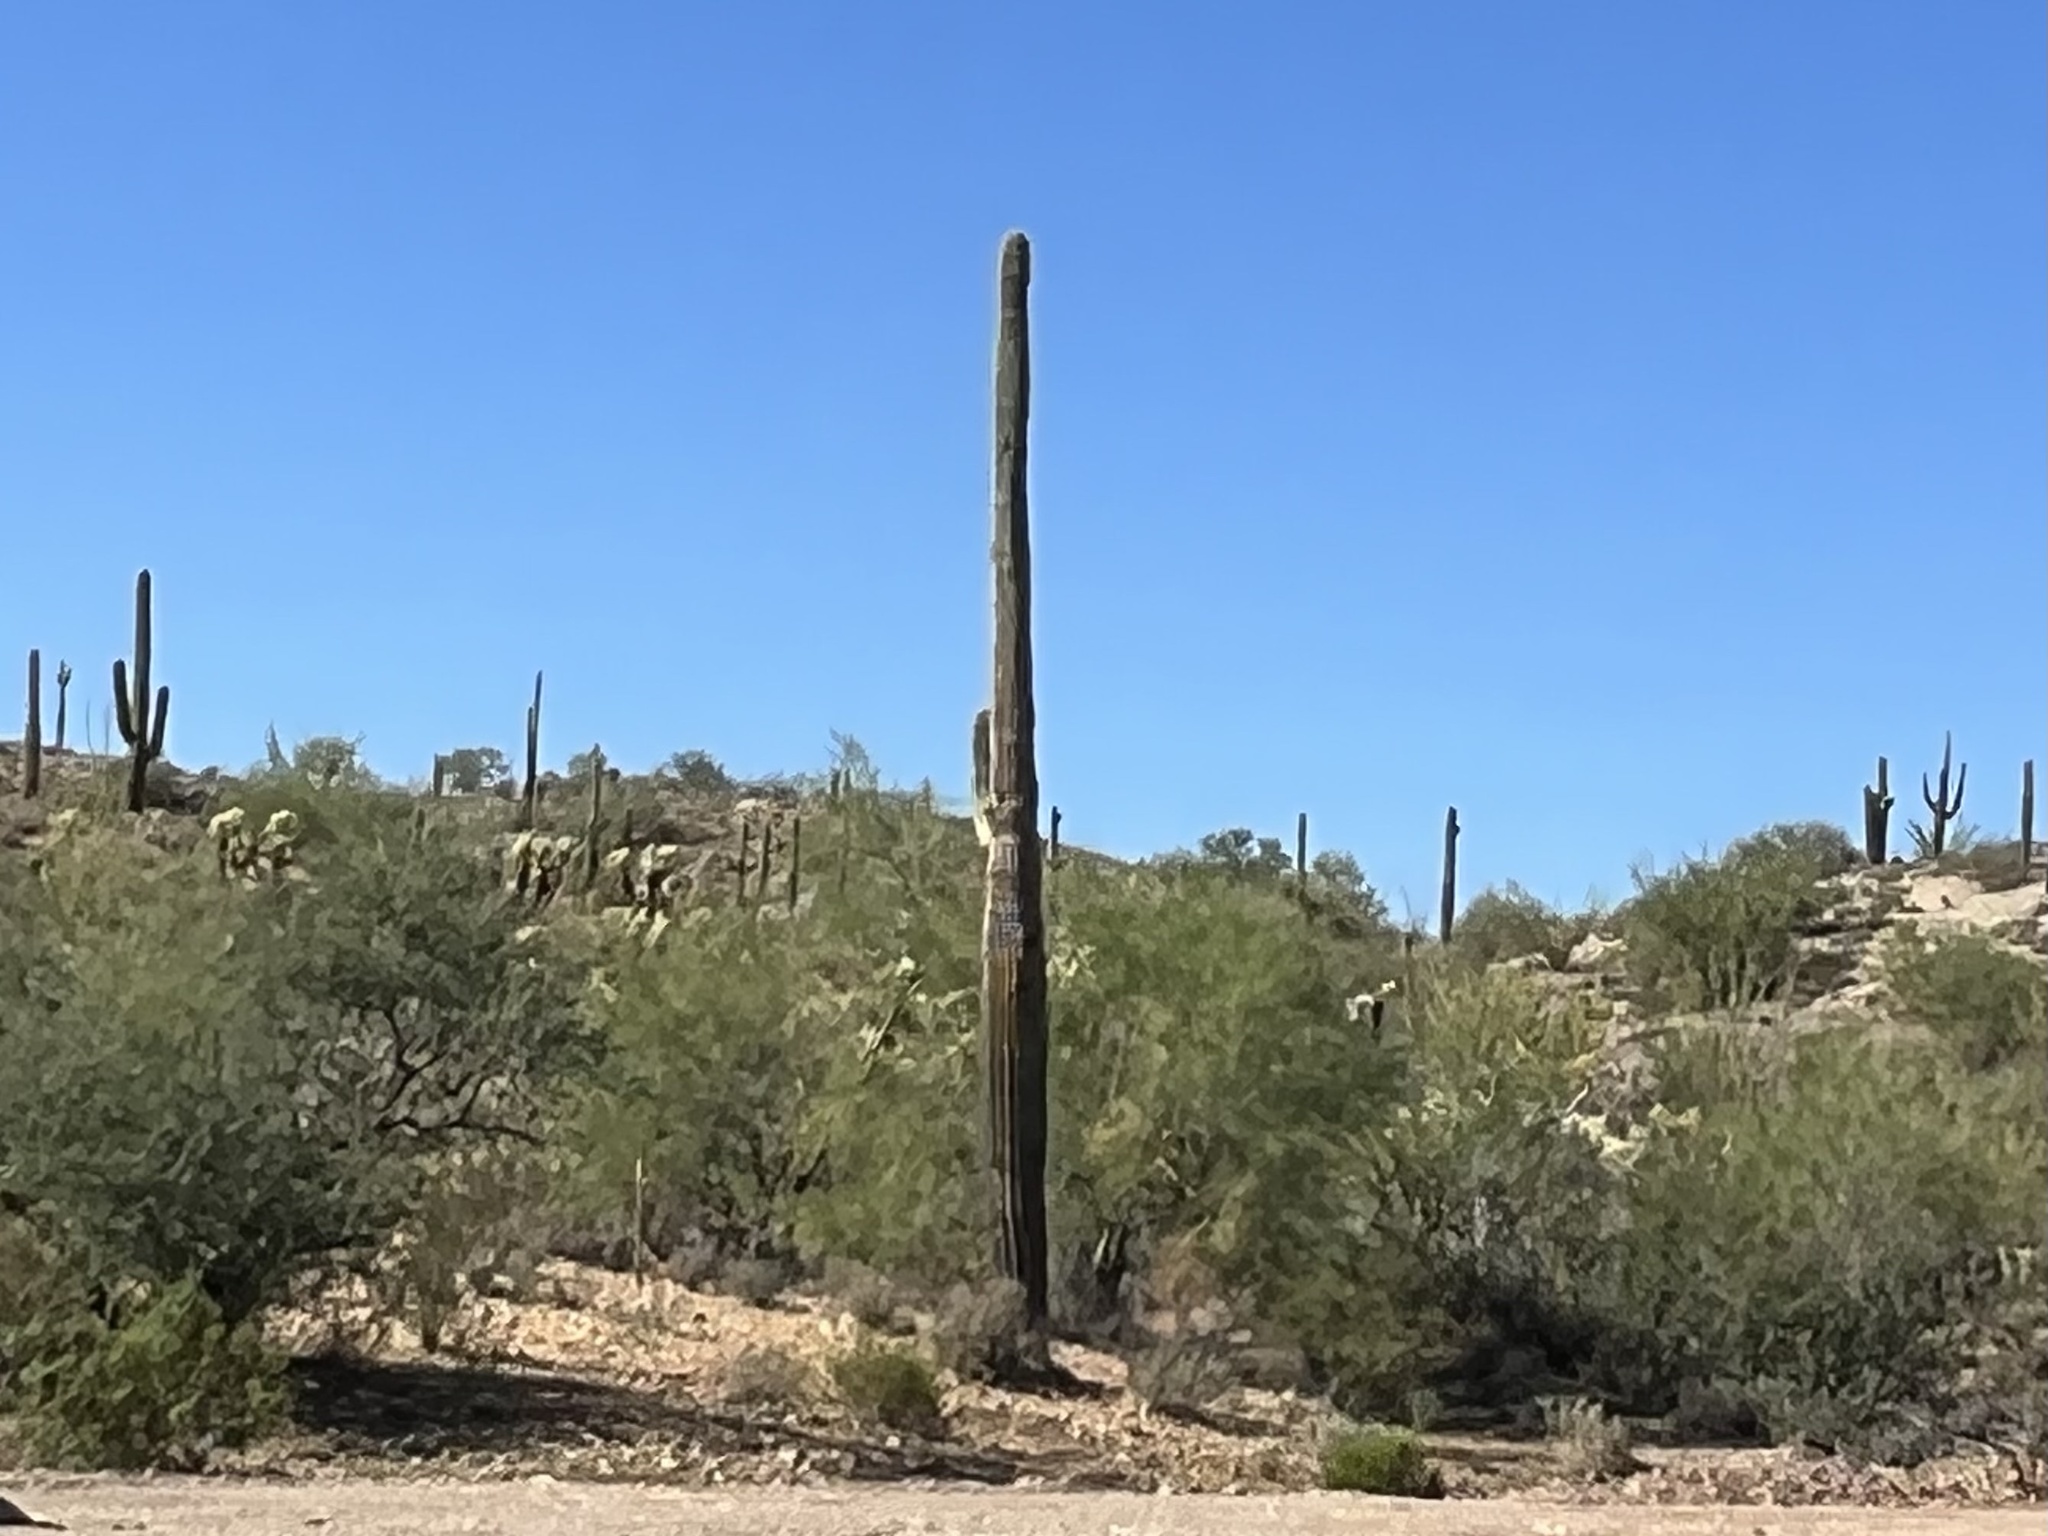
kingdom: Plantae
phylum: Tracheophyta
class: Magnoliopsida
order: Caryophyllales
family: Cactaceae
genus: Carnegiea
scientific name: Carnegiea gigantea
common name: Saguaro
